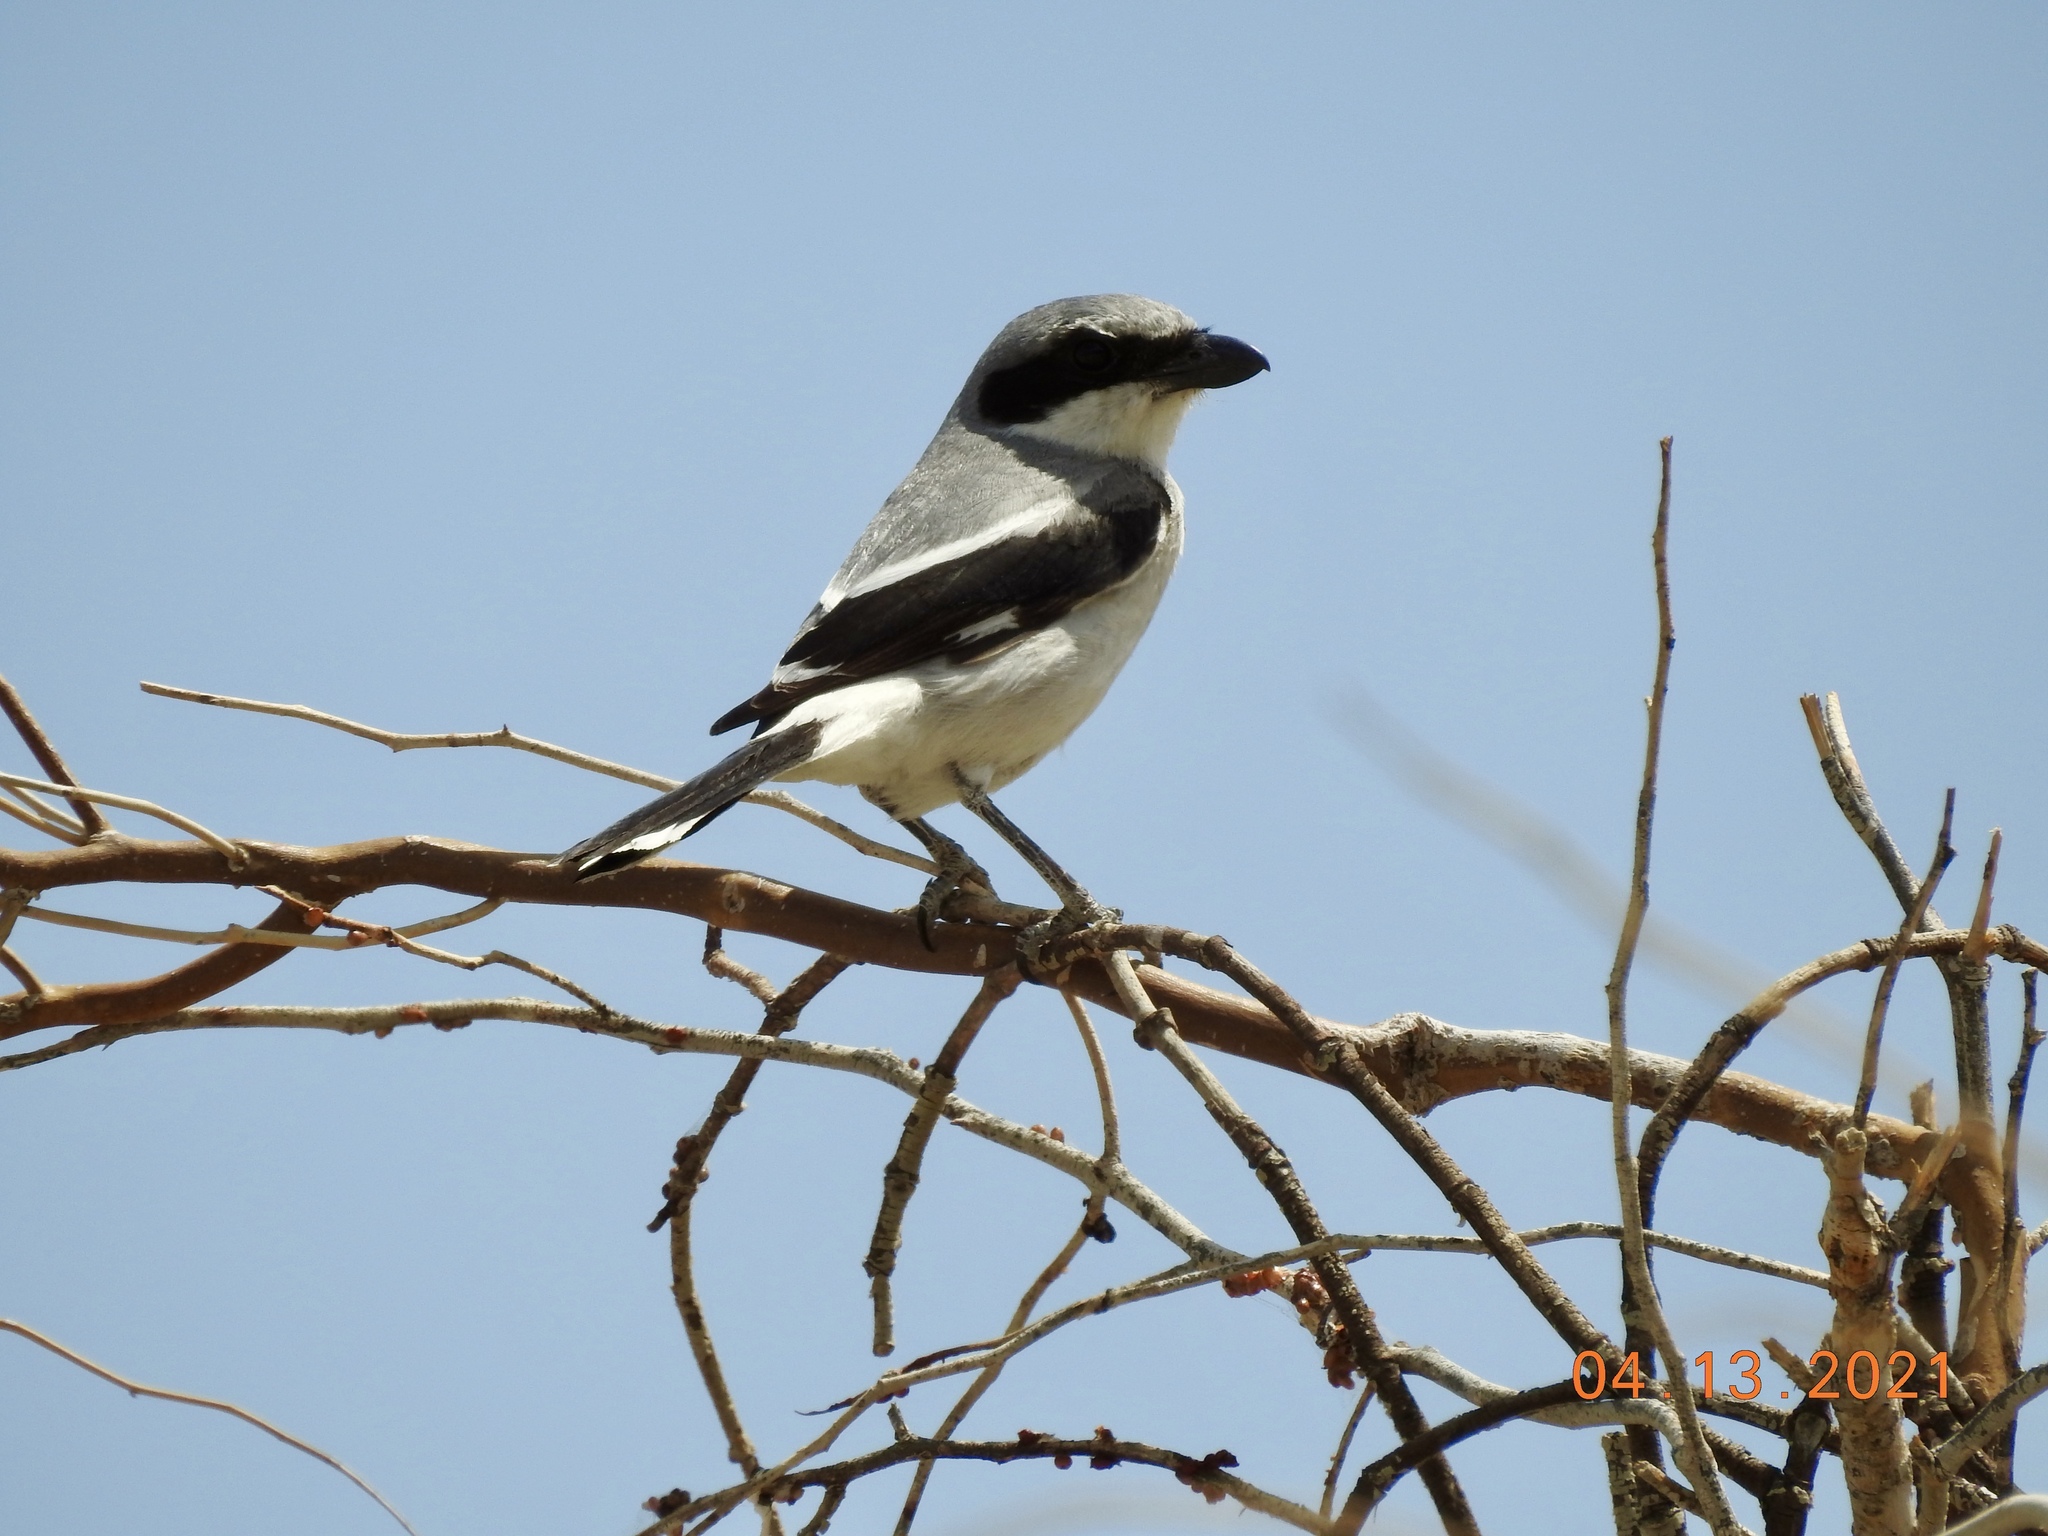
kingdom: Animalia
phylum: Chordata
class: Aves
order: Passeriformes
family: Laniidae
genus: Lanius
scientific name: Lanius ludovicianus
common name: Loggerhead shrike
